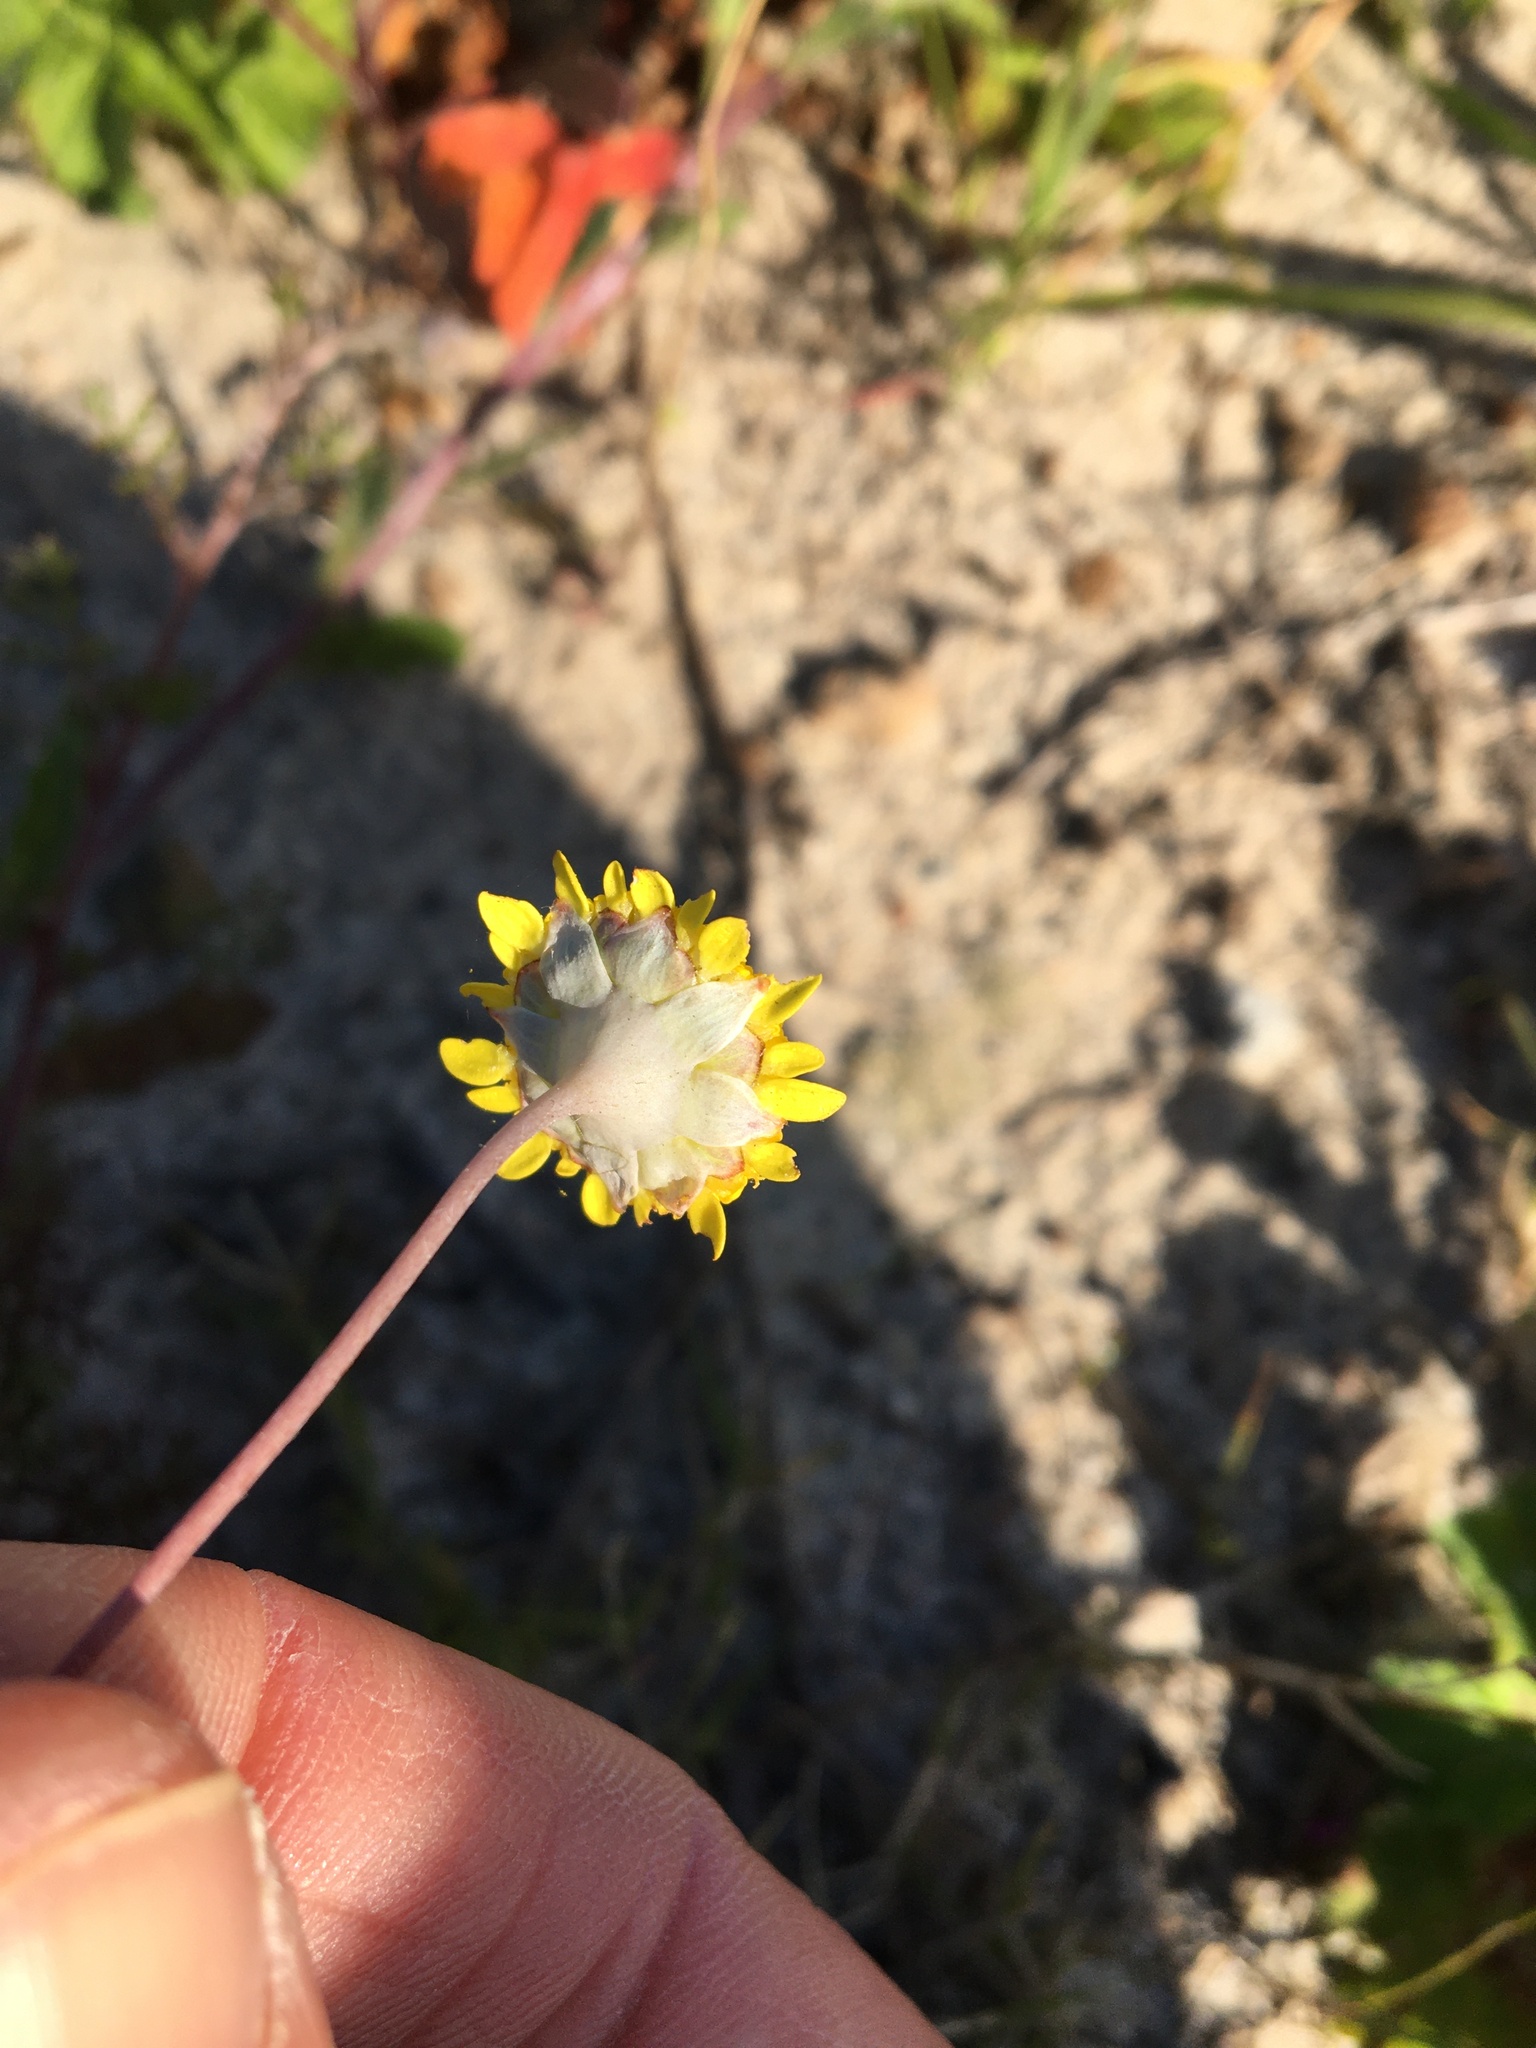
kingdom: Plantae
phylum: Tracheophyta
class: Magnoliopsida
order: Asterales
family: Asteraceae
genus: Cotula
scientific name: Cotula pruinosa
